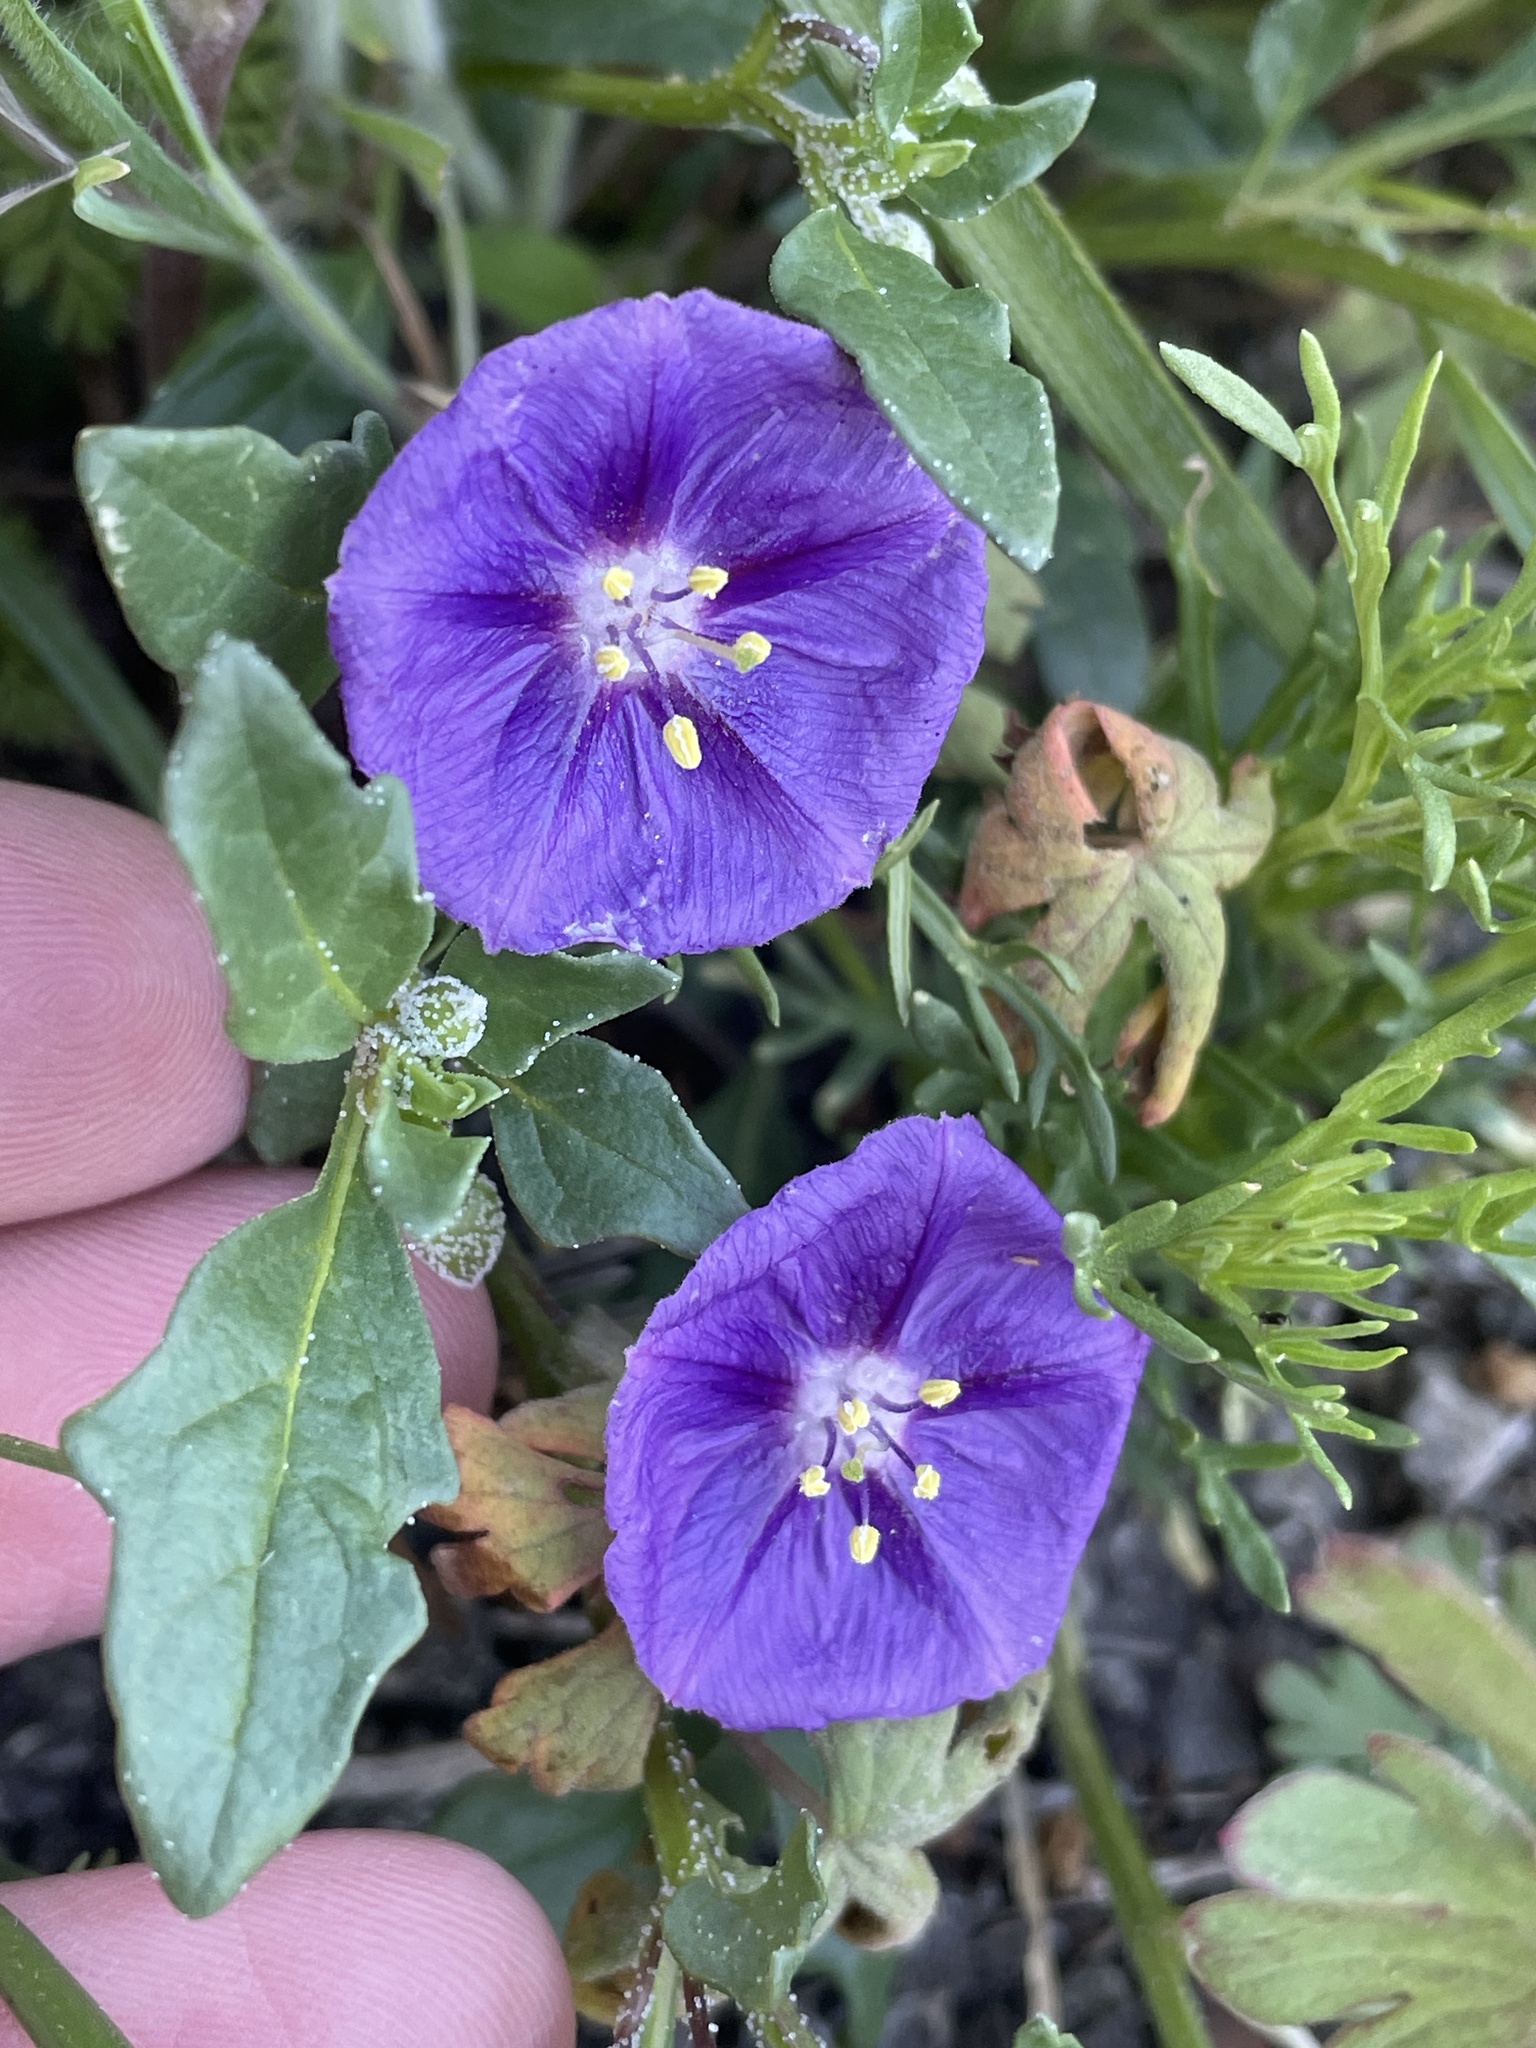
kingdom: Plantae
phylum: Tracheophyta
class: Magnoliopsida
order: Solanales
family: Solanaceae
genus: Quincula
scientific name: Quincula lobata
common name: Purple-ground-cherry
